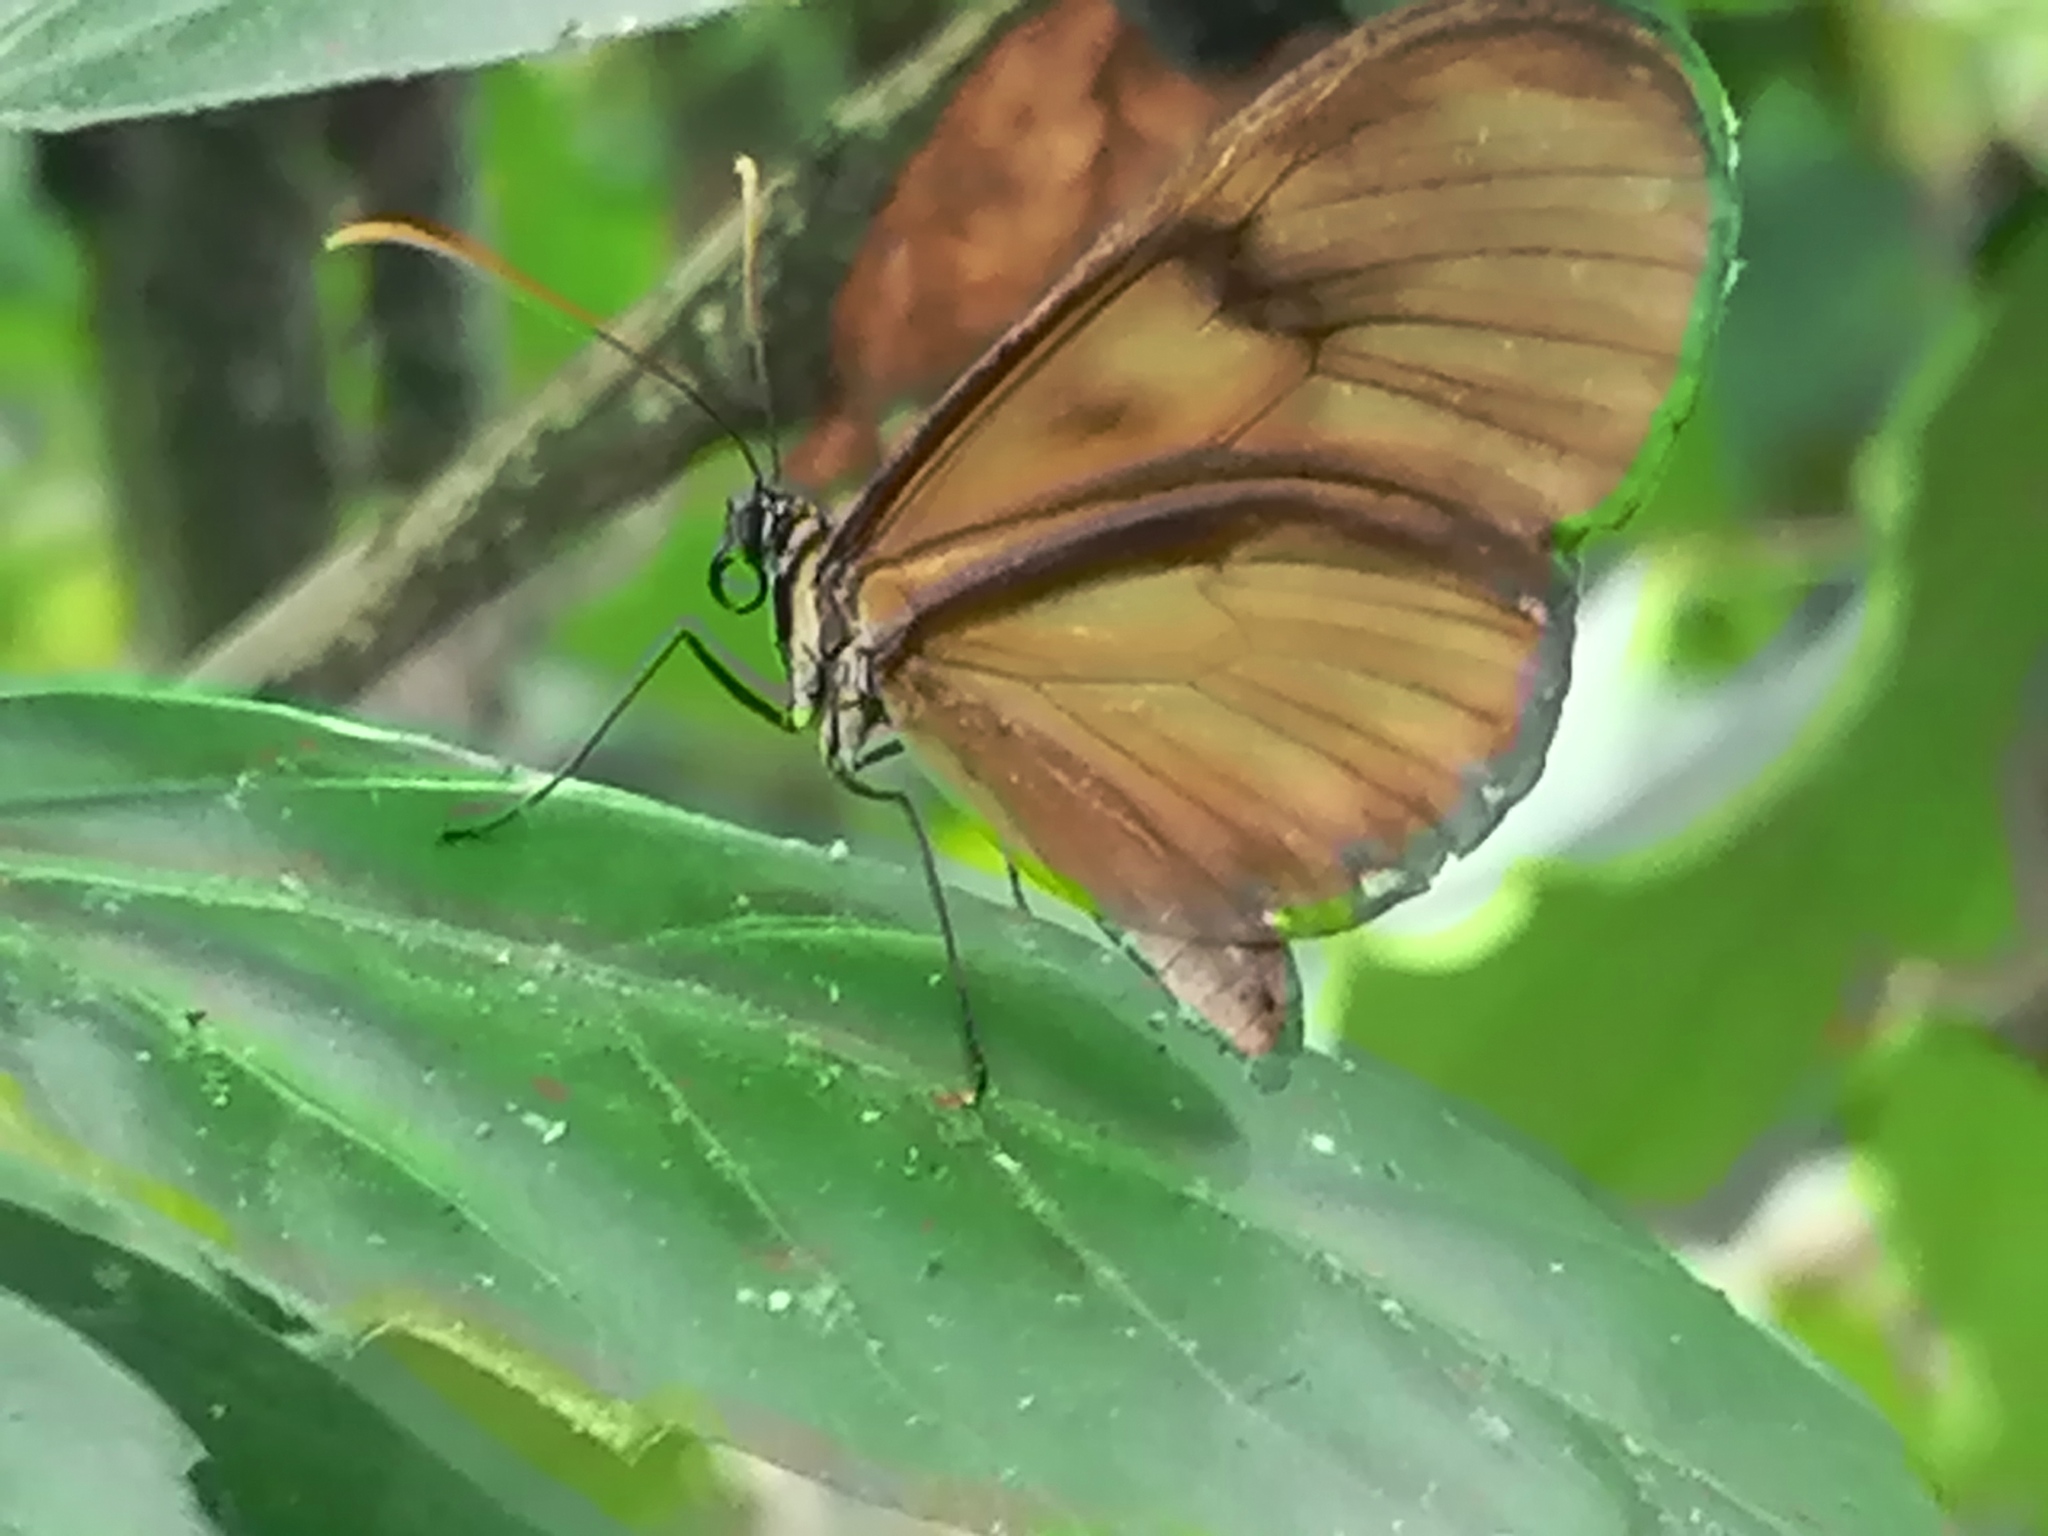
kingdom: Animalia
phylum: Arthropoda
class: Insecta
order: Lepidoptera
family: Nymphalidae
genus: Pteronymia
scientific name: Pteronymia latilla
